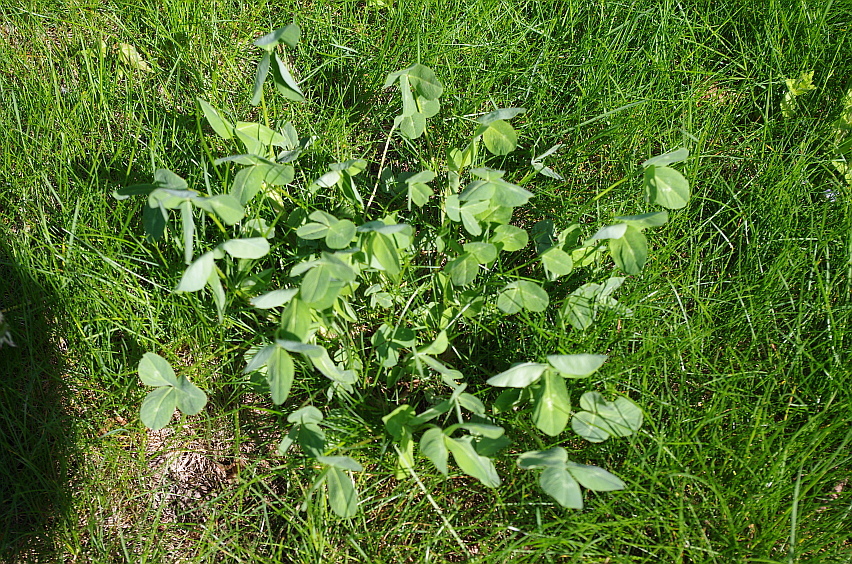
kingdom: Plantae
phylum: Tracheophyta
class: Magnoliopsida
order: Fabales
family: Fabaceae
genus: Trifolium
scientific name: Trifolium pratense
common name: Red clover
